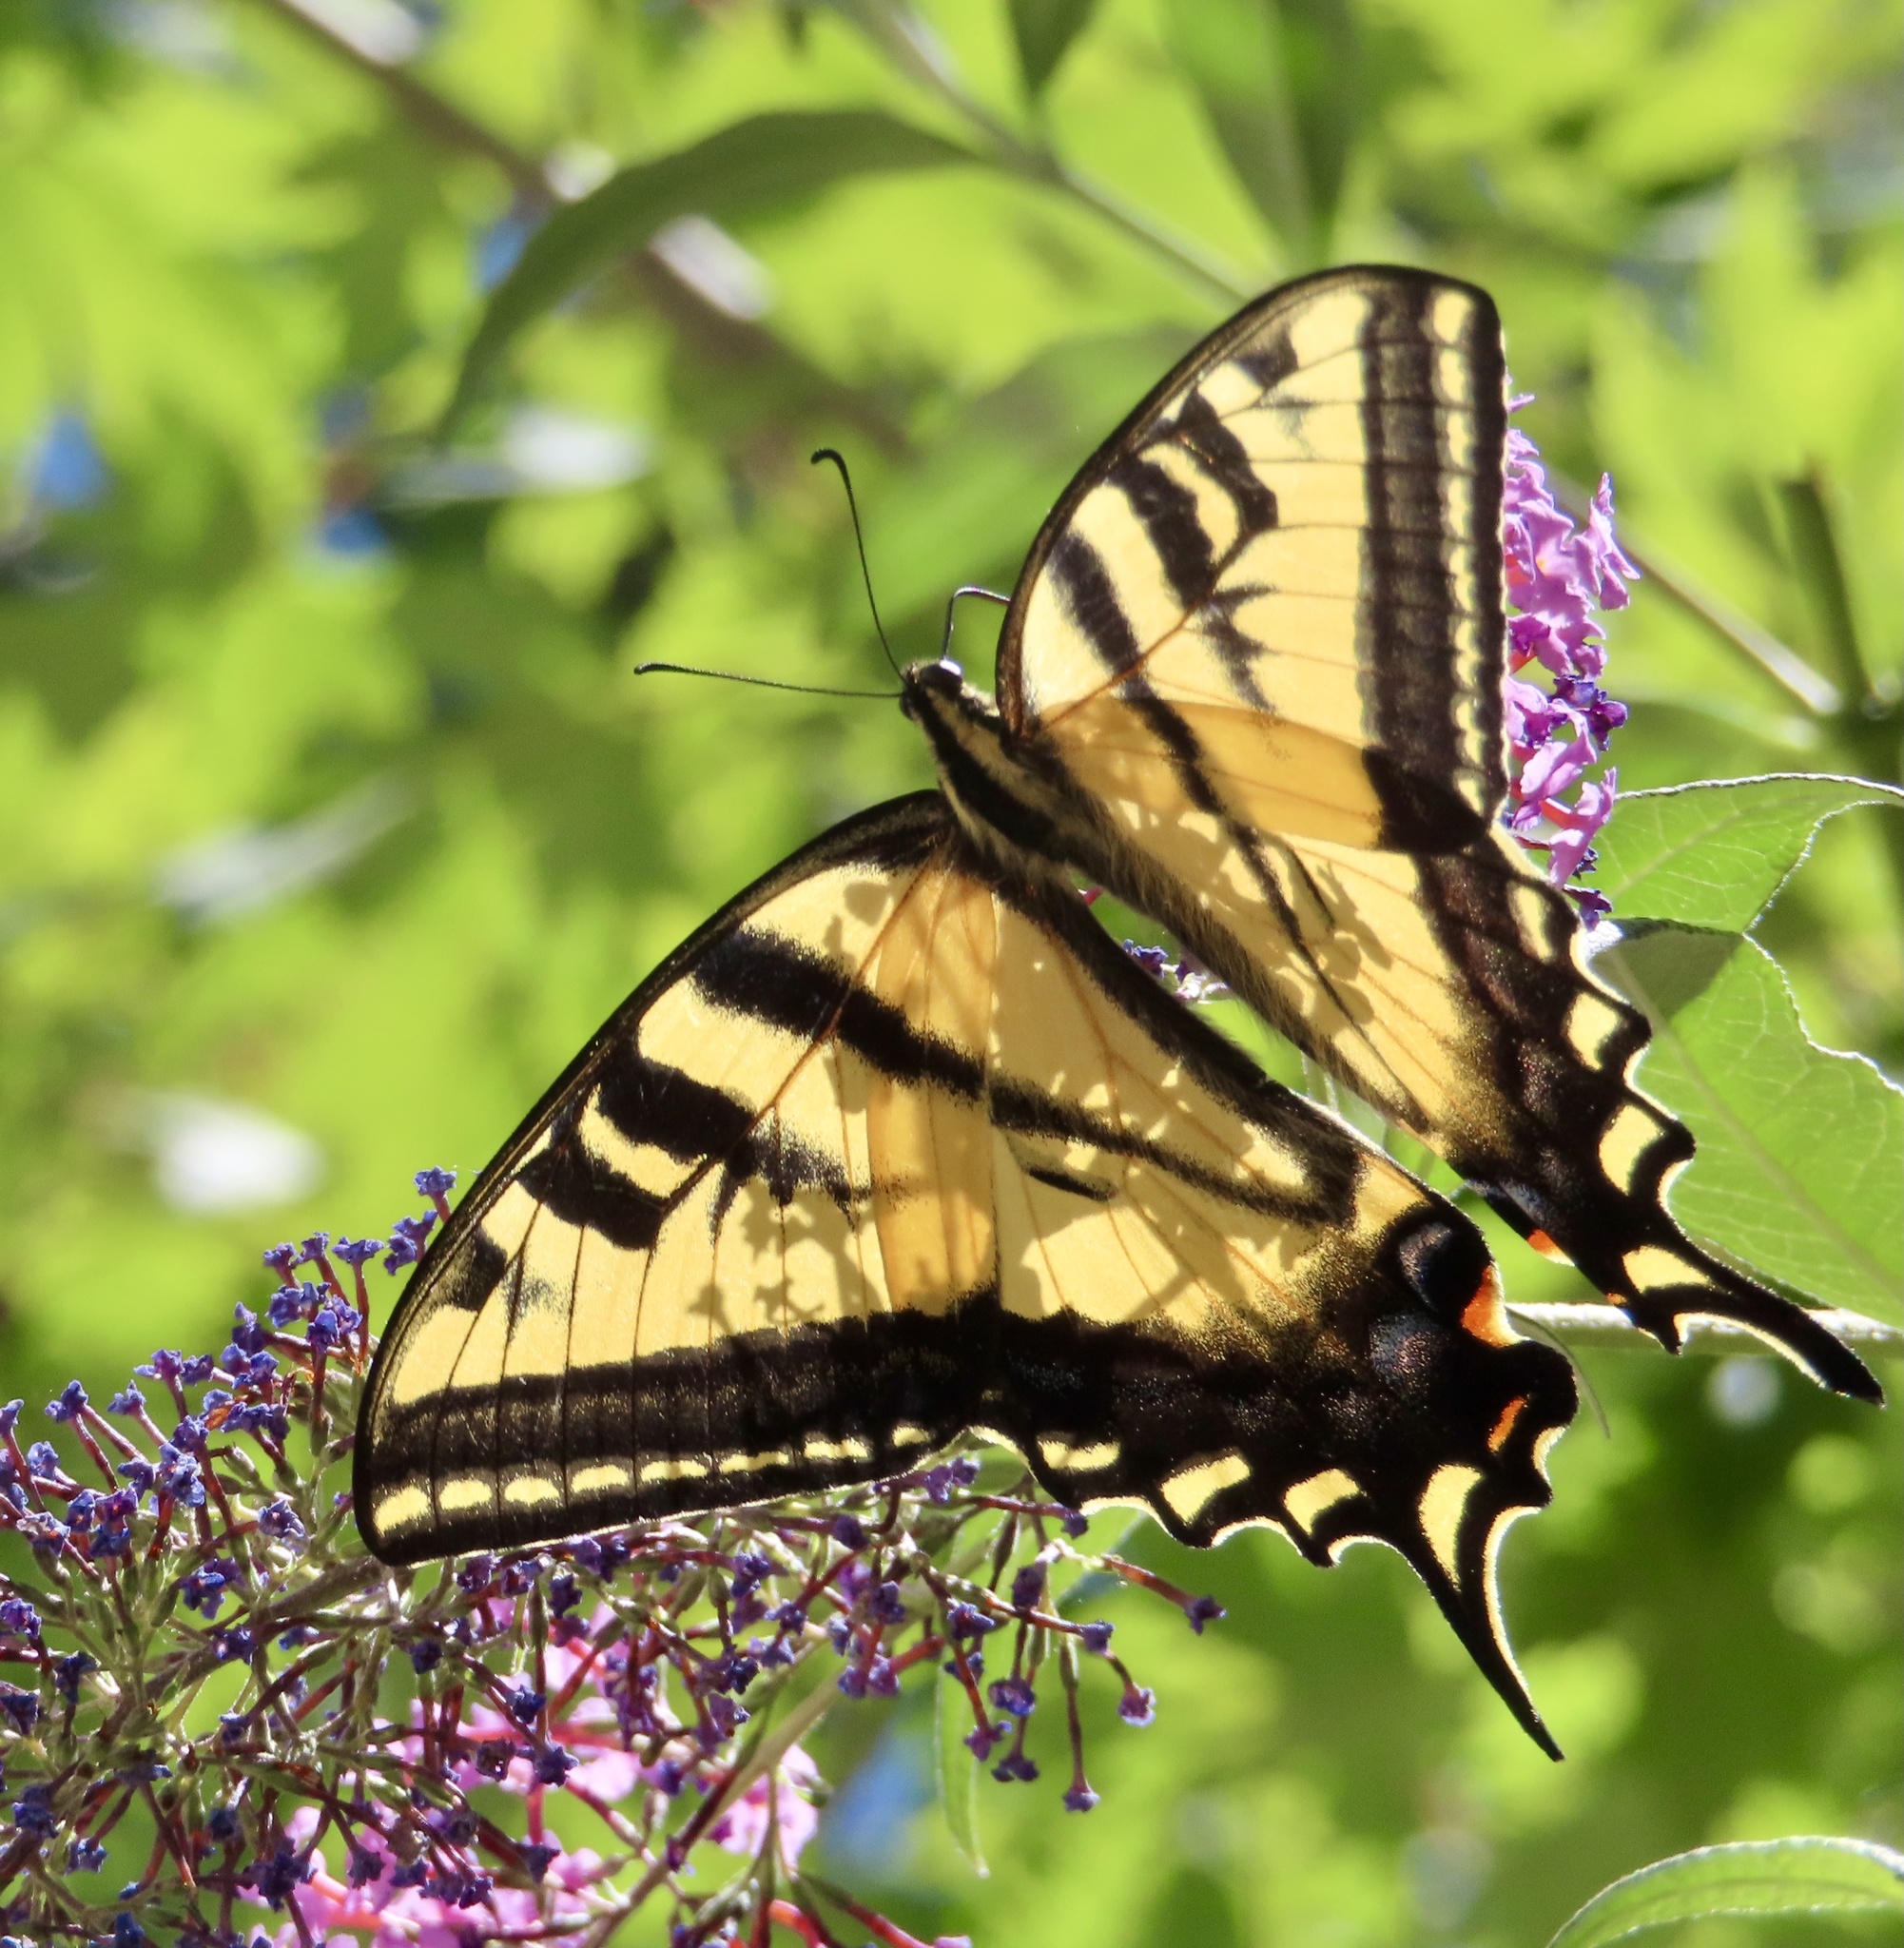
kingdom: Animalia
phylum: Arthropoda
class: Insecta
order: Lepidoptera
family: Papilionidae
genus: Papilio
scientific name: Papilio rutulus
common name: Western tiger swallowtail
